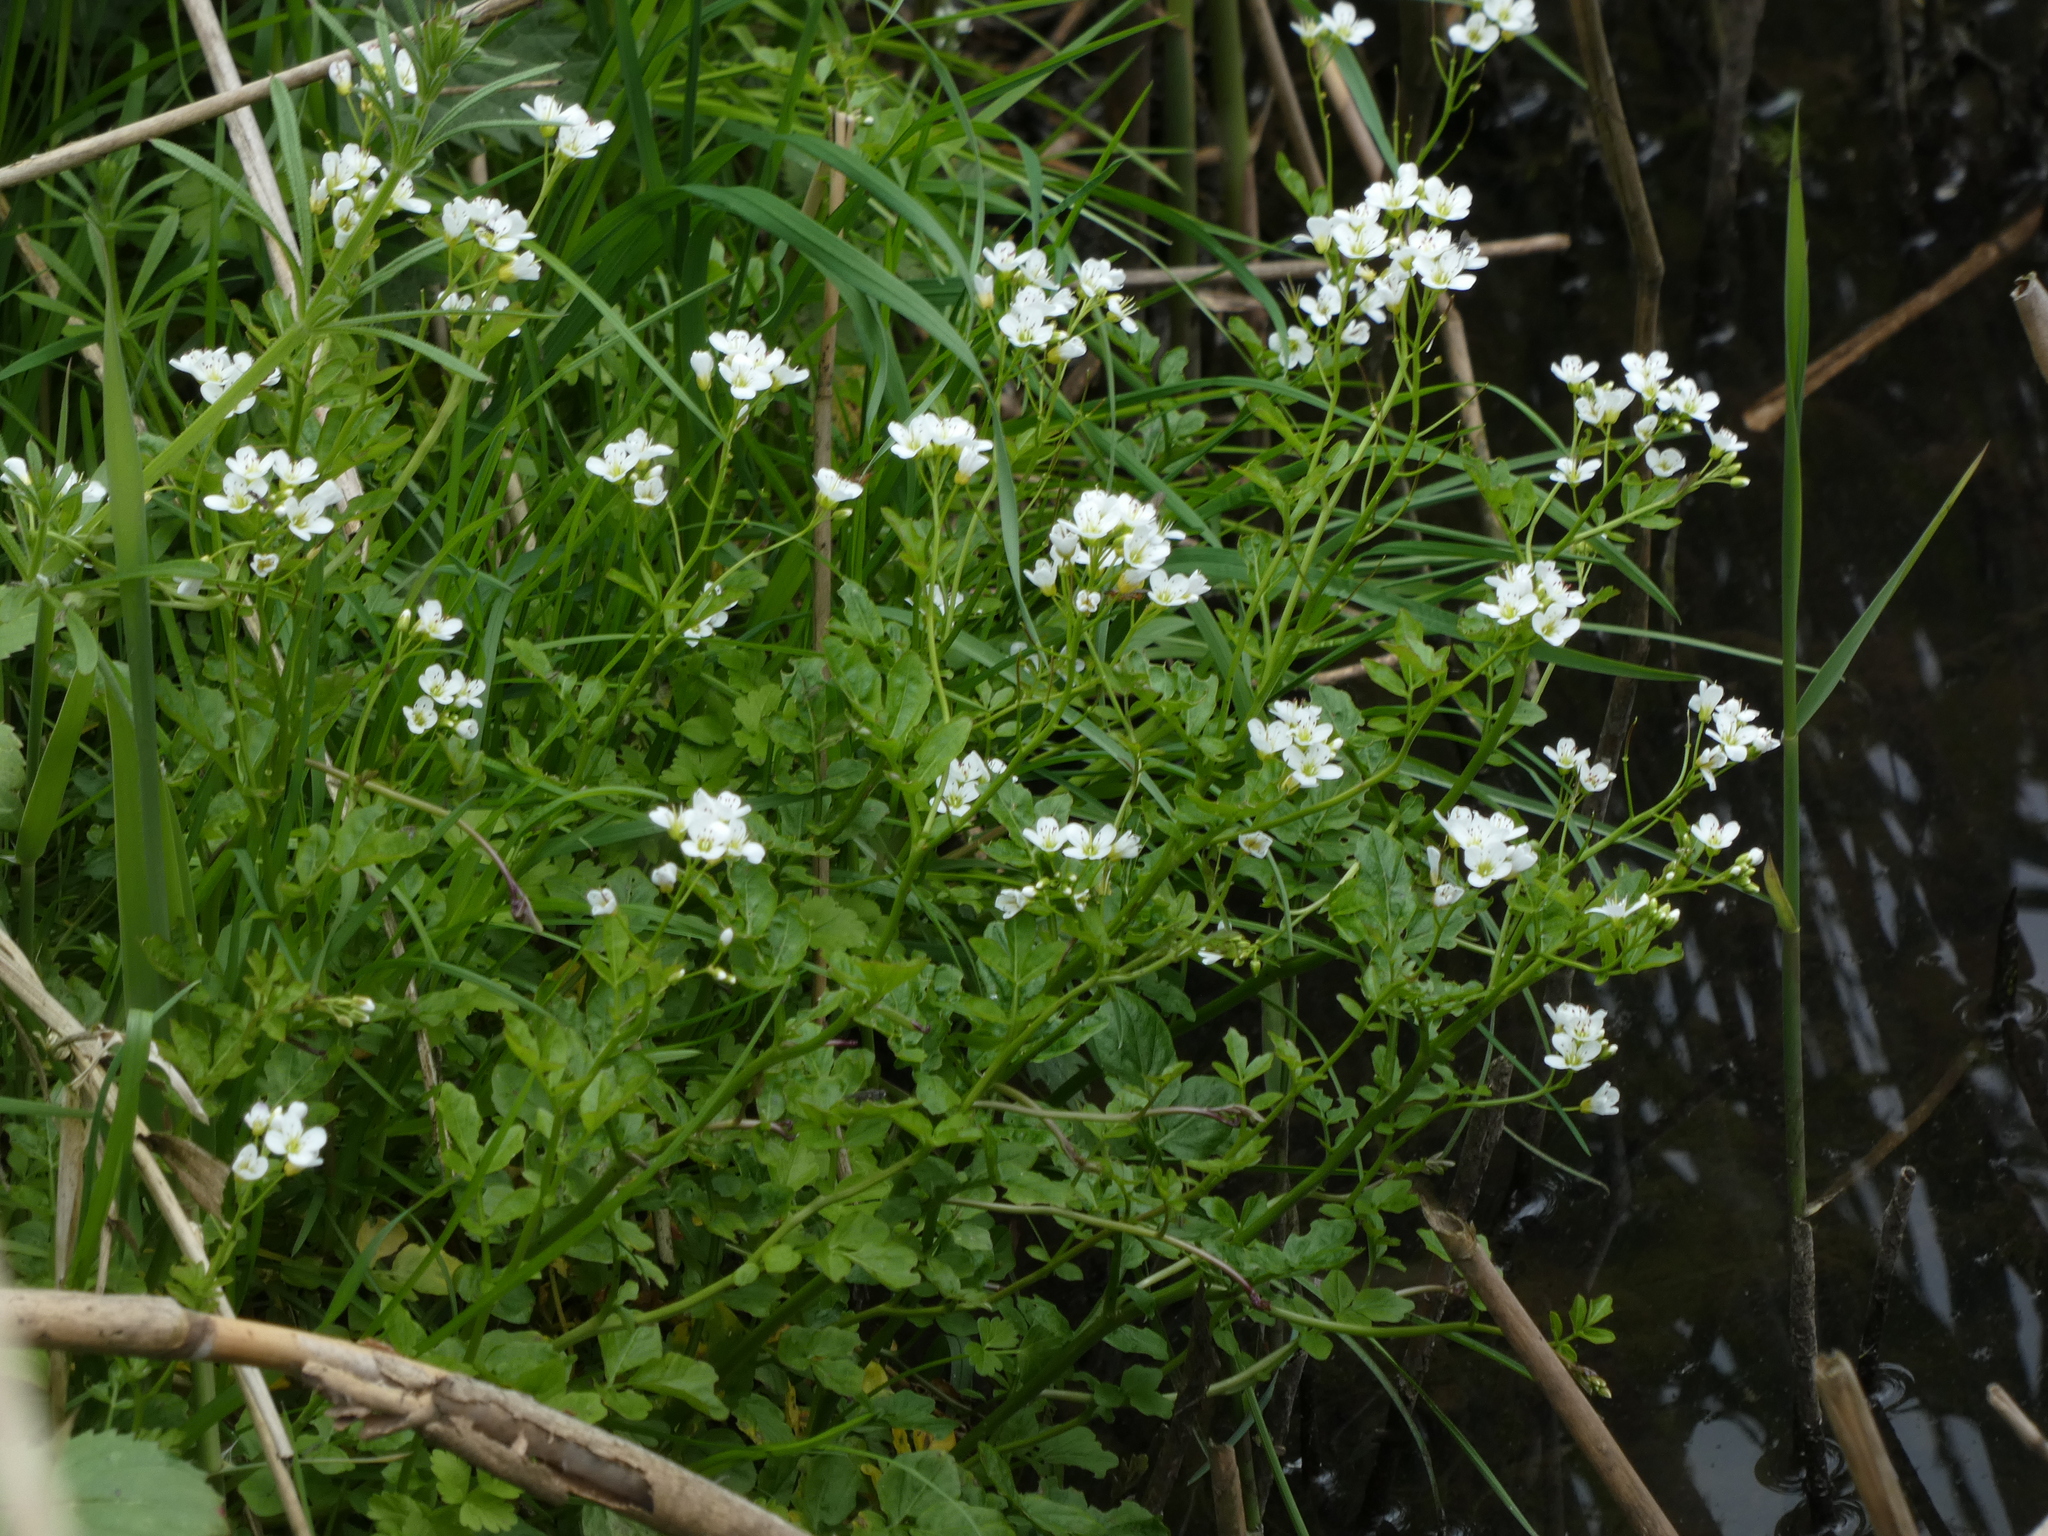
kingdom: Plantae
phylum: Tracheophyta
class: Magnoliopsida
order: Brassicales
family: Brassicaceae
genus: Cardamine
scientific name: Cardamine amara
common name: Large bitter-cress
